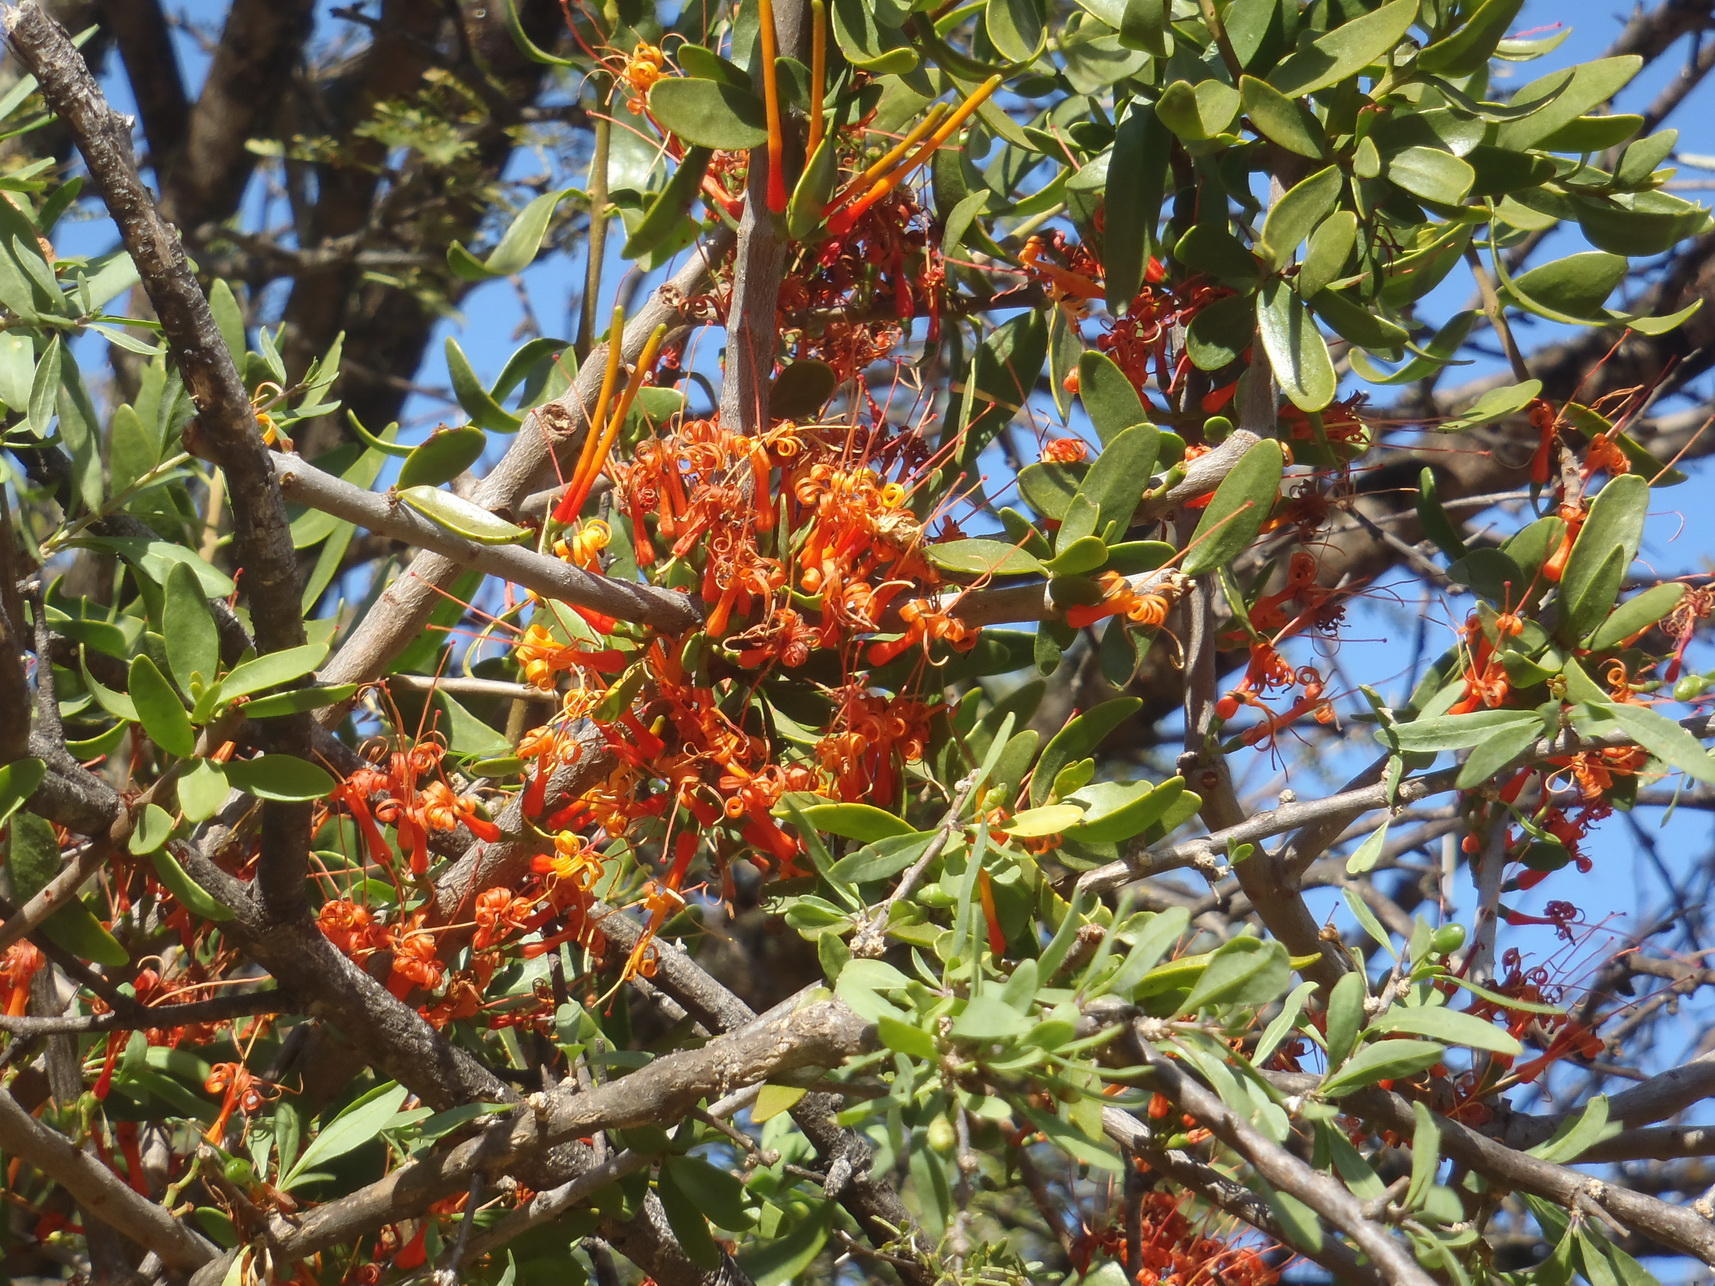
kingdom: Plantae
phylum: Tracheophyta
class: Magnoliopsida
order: Santalales
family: Loranthaceae
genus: Moquiniella
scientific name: Moquiniella rubra
